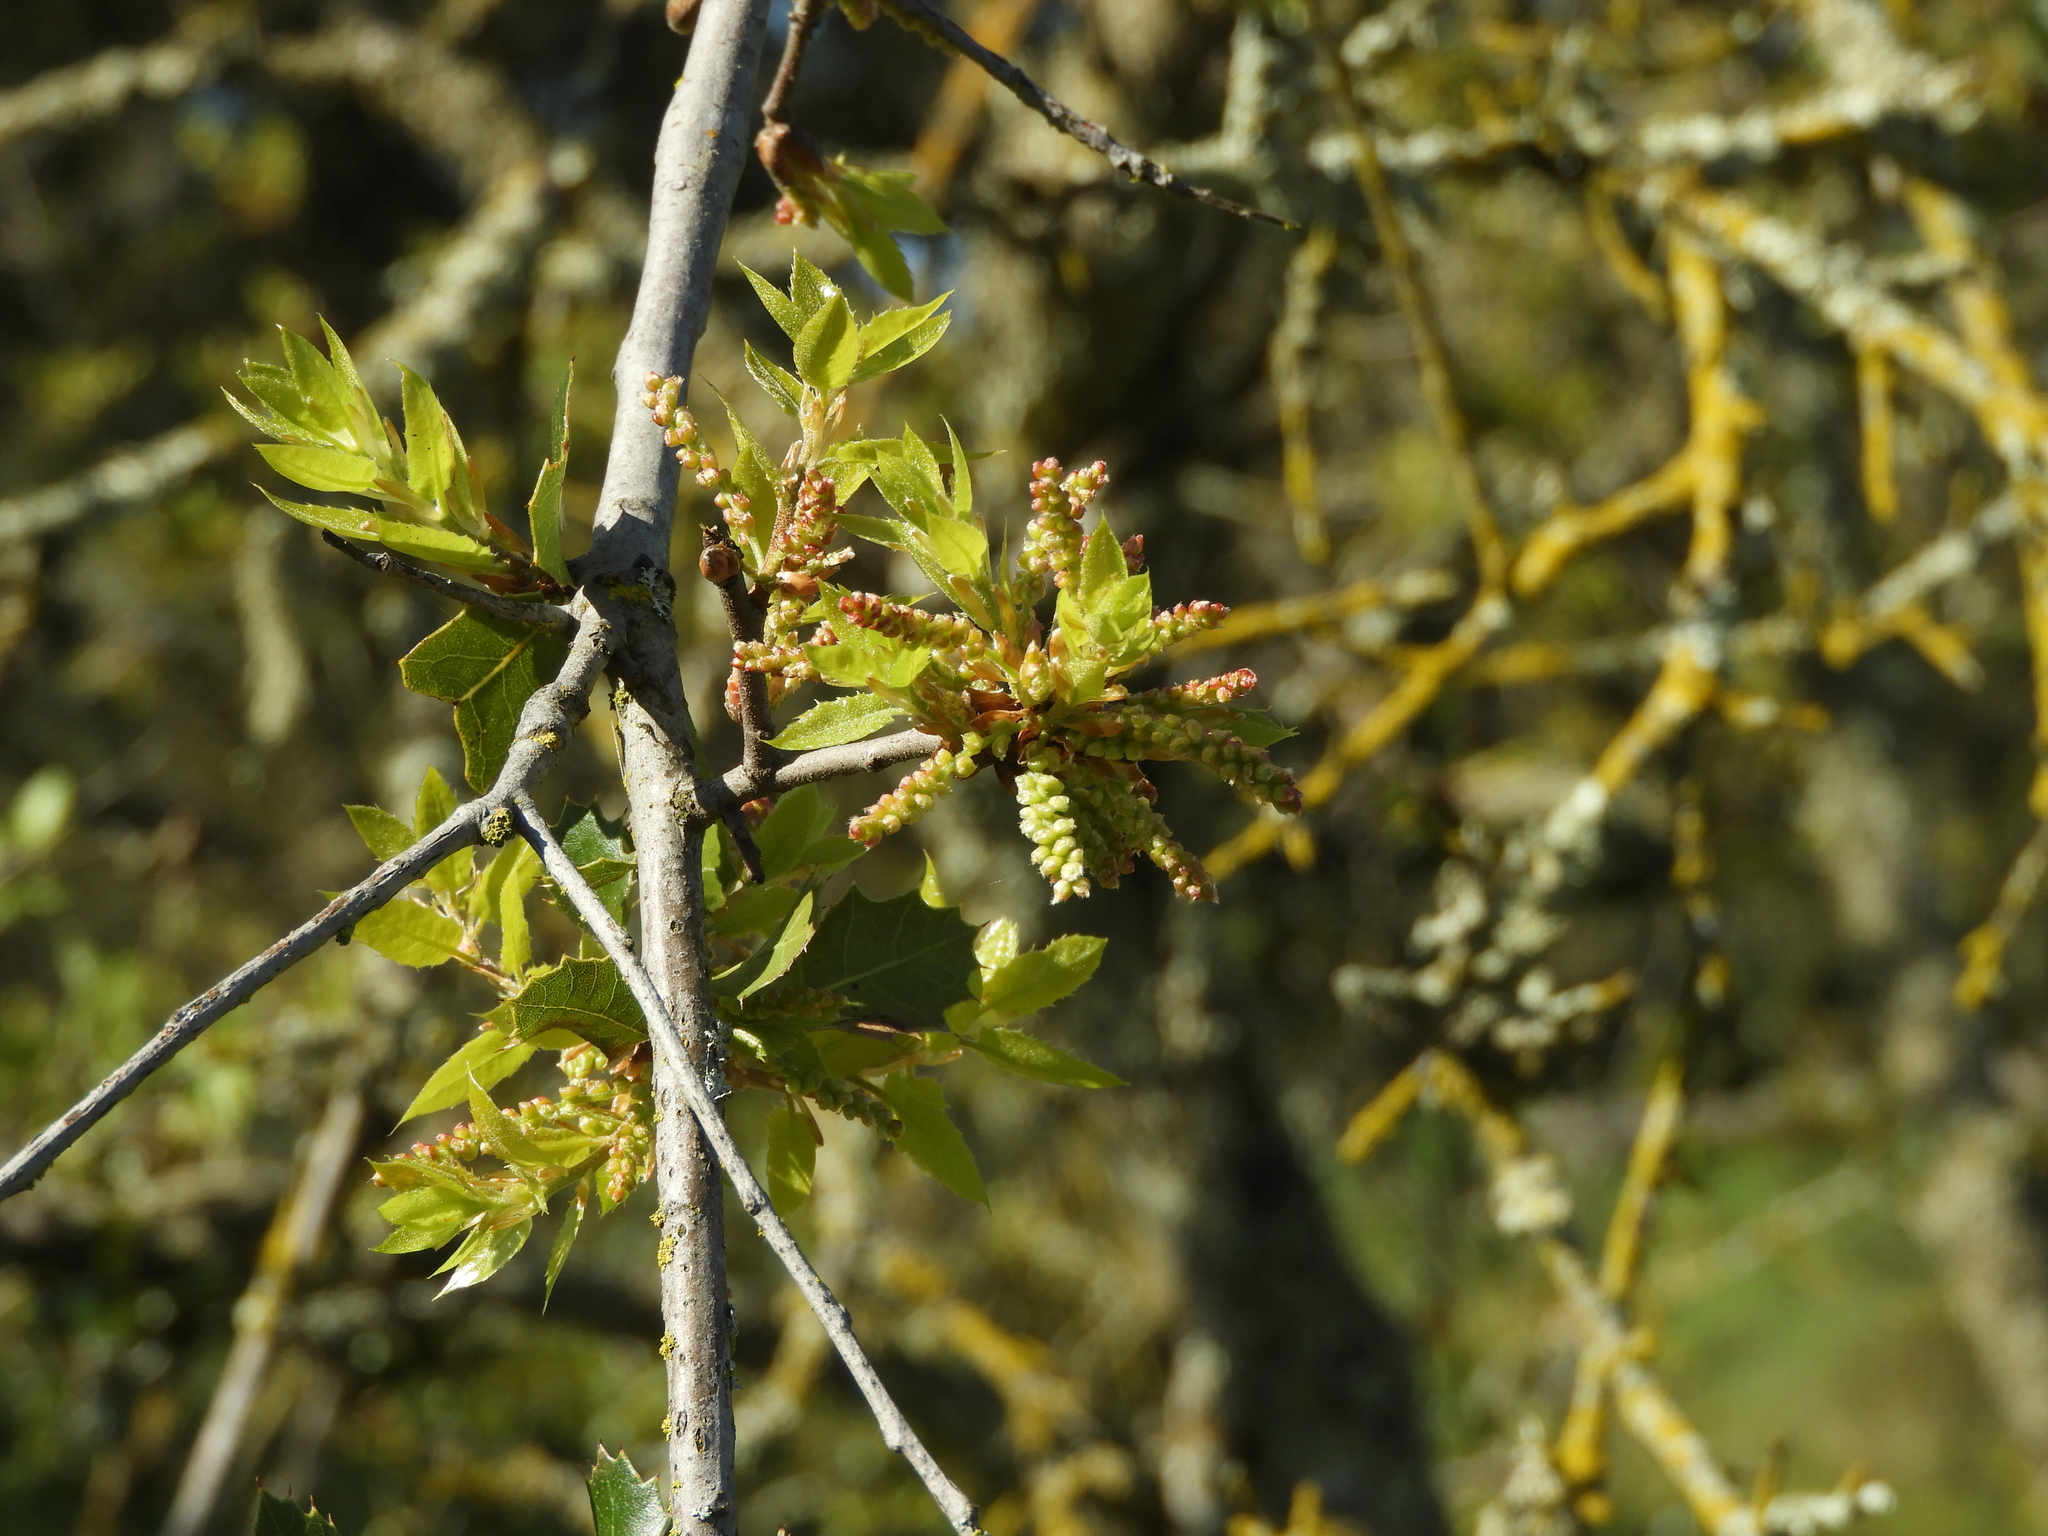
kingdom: Plantae
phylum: Tracheophyta
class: Magnoliopsida
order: Fagales
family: Fagaceae
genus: Quercus
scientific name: Quercus wislizeni
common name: Interior live oak
